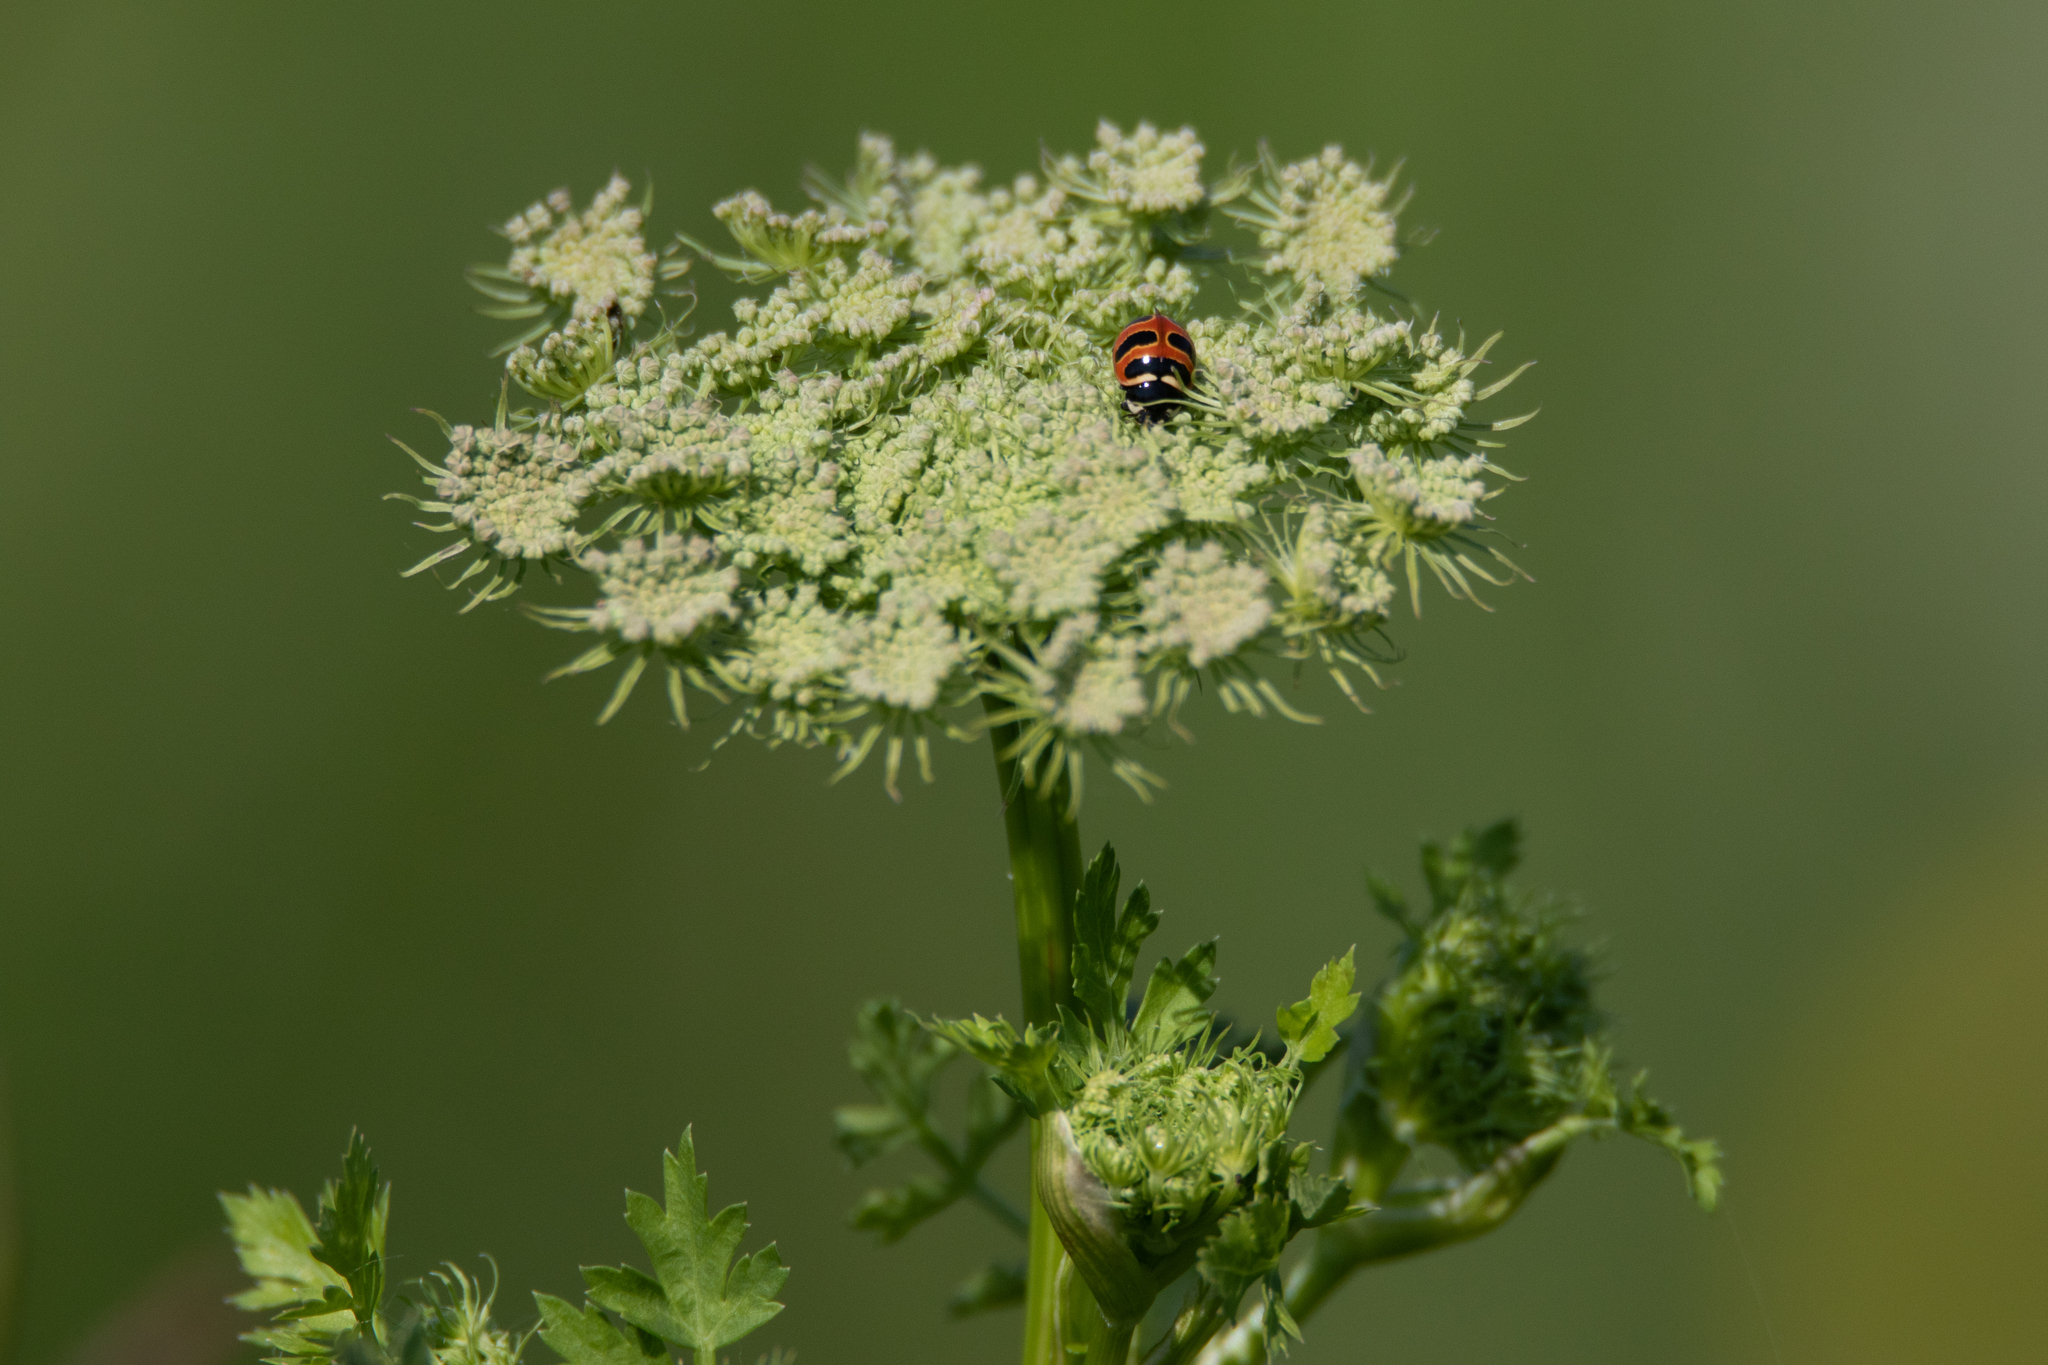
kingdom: Animalia
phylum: Arthropoda
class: Insecta
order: Coleoptera
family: Coccinellidae
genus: Coccinella
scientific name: Coccinella trifasciata
